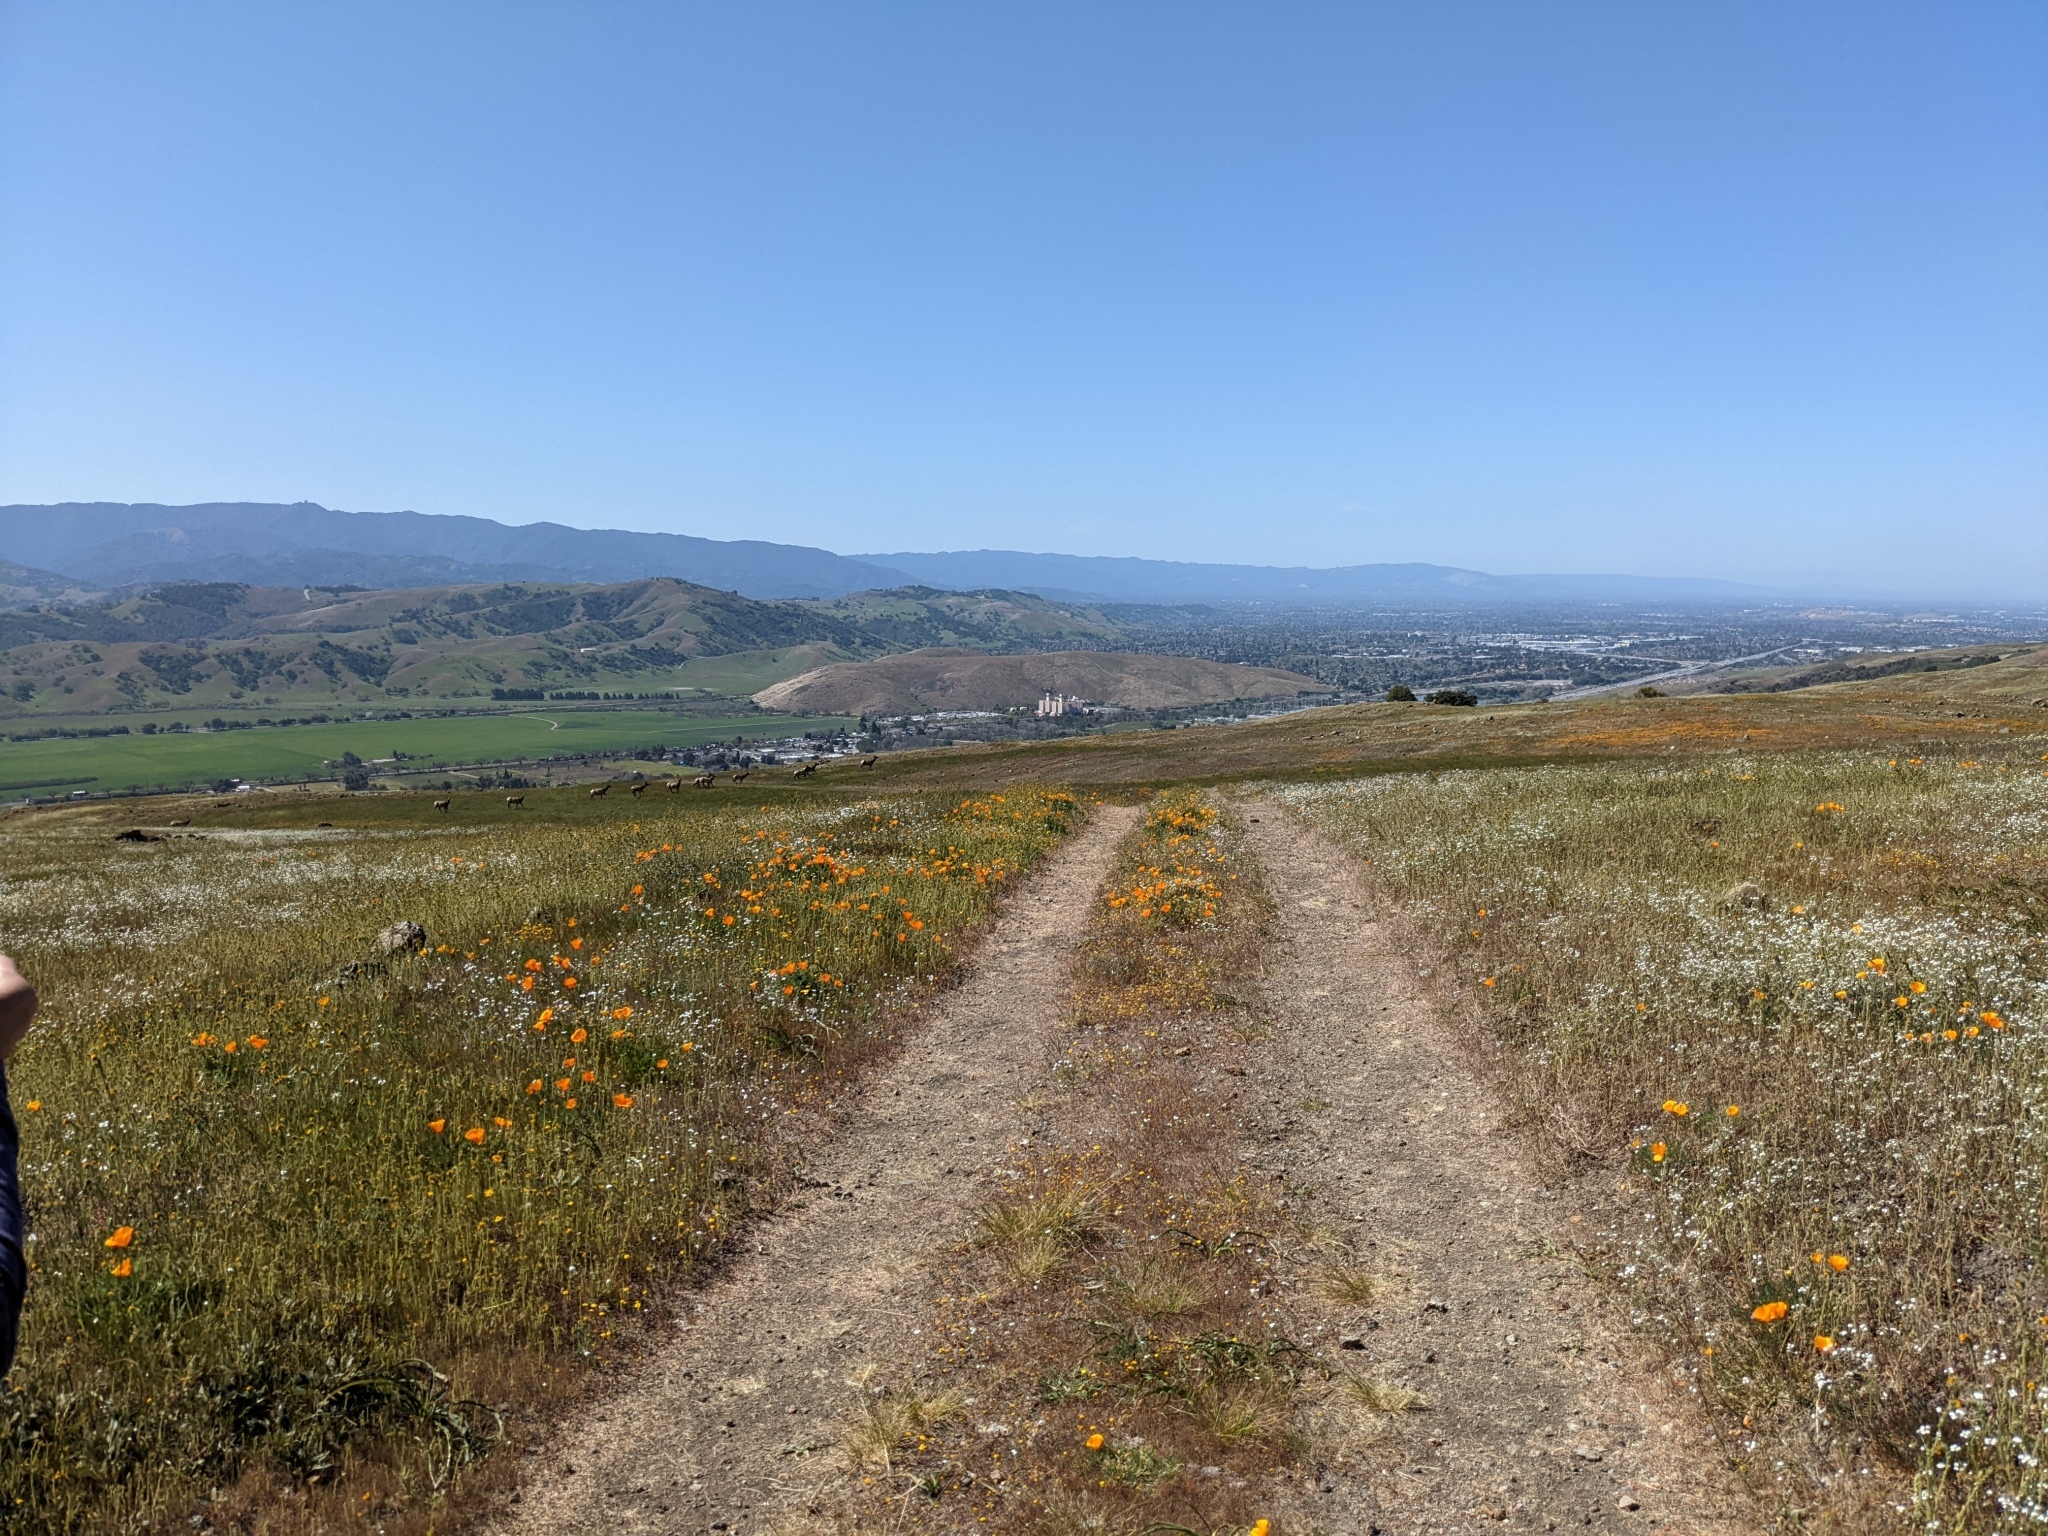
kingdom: Animalia
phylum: Chordata
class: Mammalia
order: Artiodactyla
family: Cervidae
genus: Cervus
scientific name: Cervus elaphus
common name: Red deer
